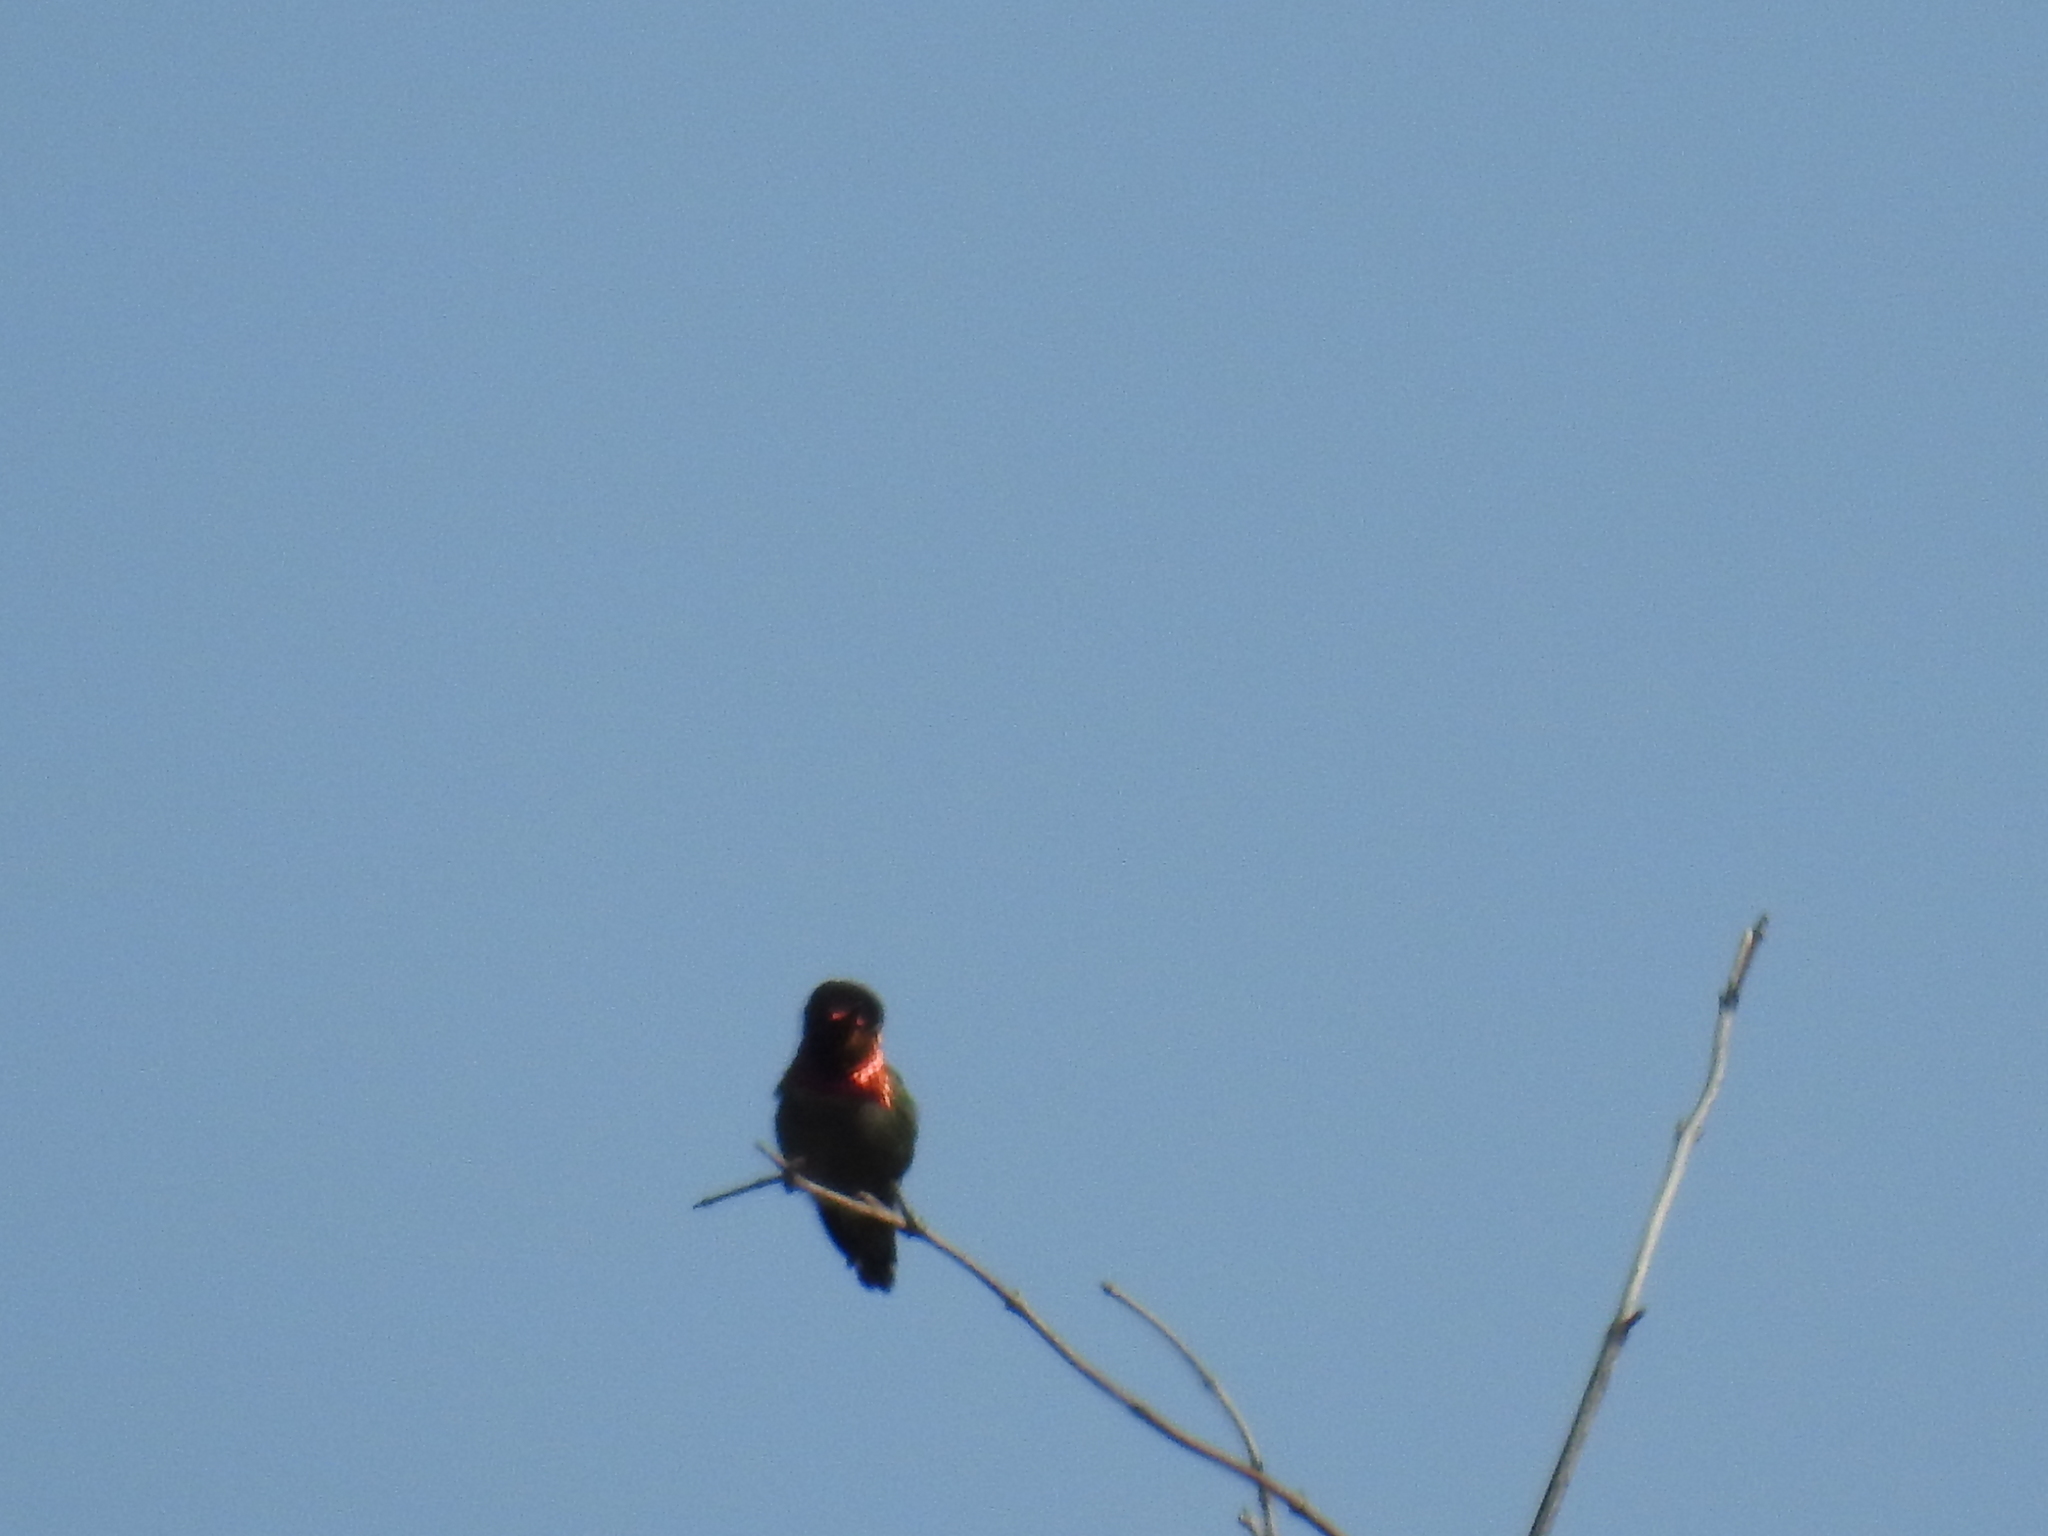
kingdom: Animalia
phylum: Chordata
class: Aves
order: Apodiformes
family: Trochilidae
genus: Calypte
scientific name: Calypte anna
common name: Anna's hummingbird
